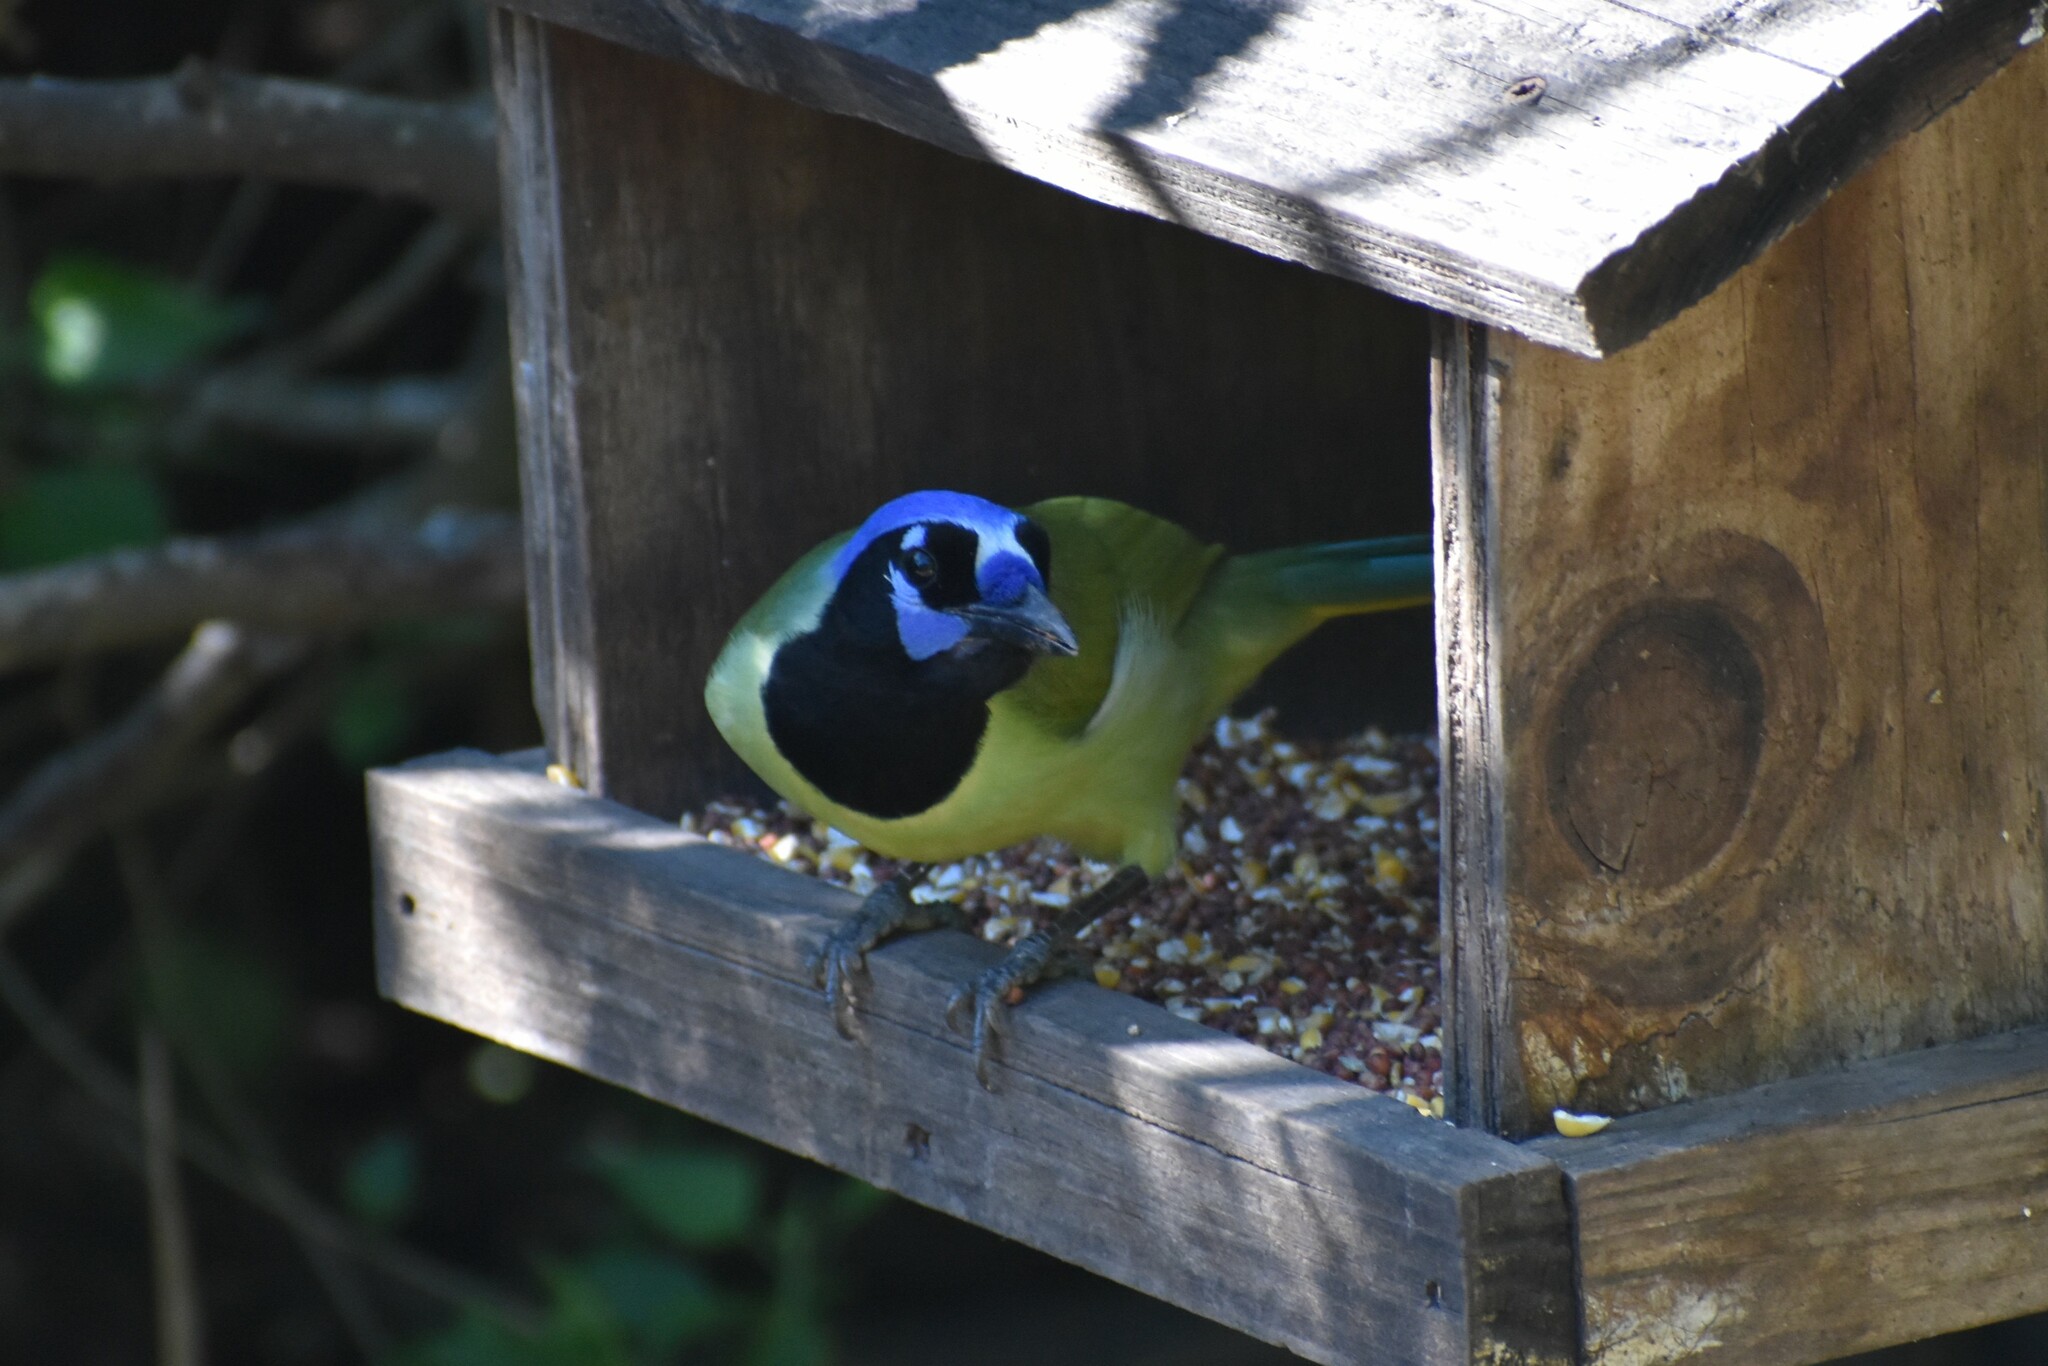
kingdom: Animalia
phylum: Chordata
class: Aves
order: Passeriformes
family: Corvidae
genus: Cyanocorax
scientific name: Cyanocorax yncas
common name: Green jay
